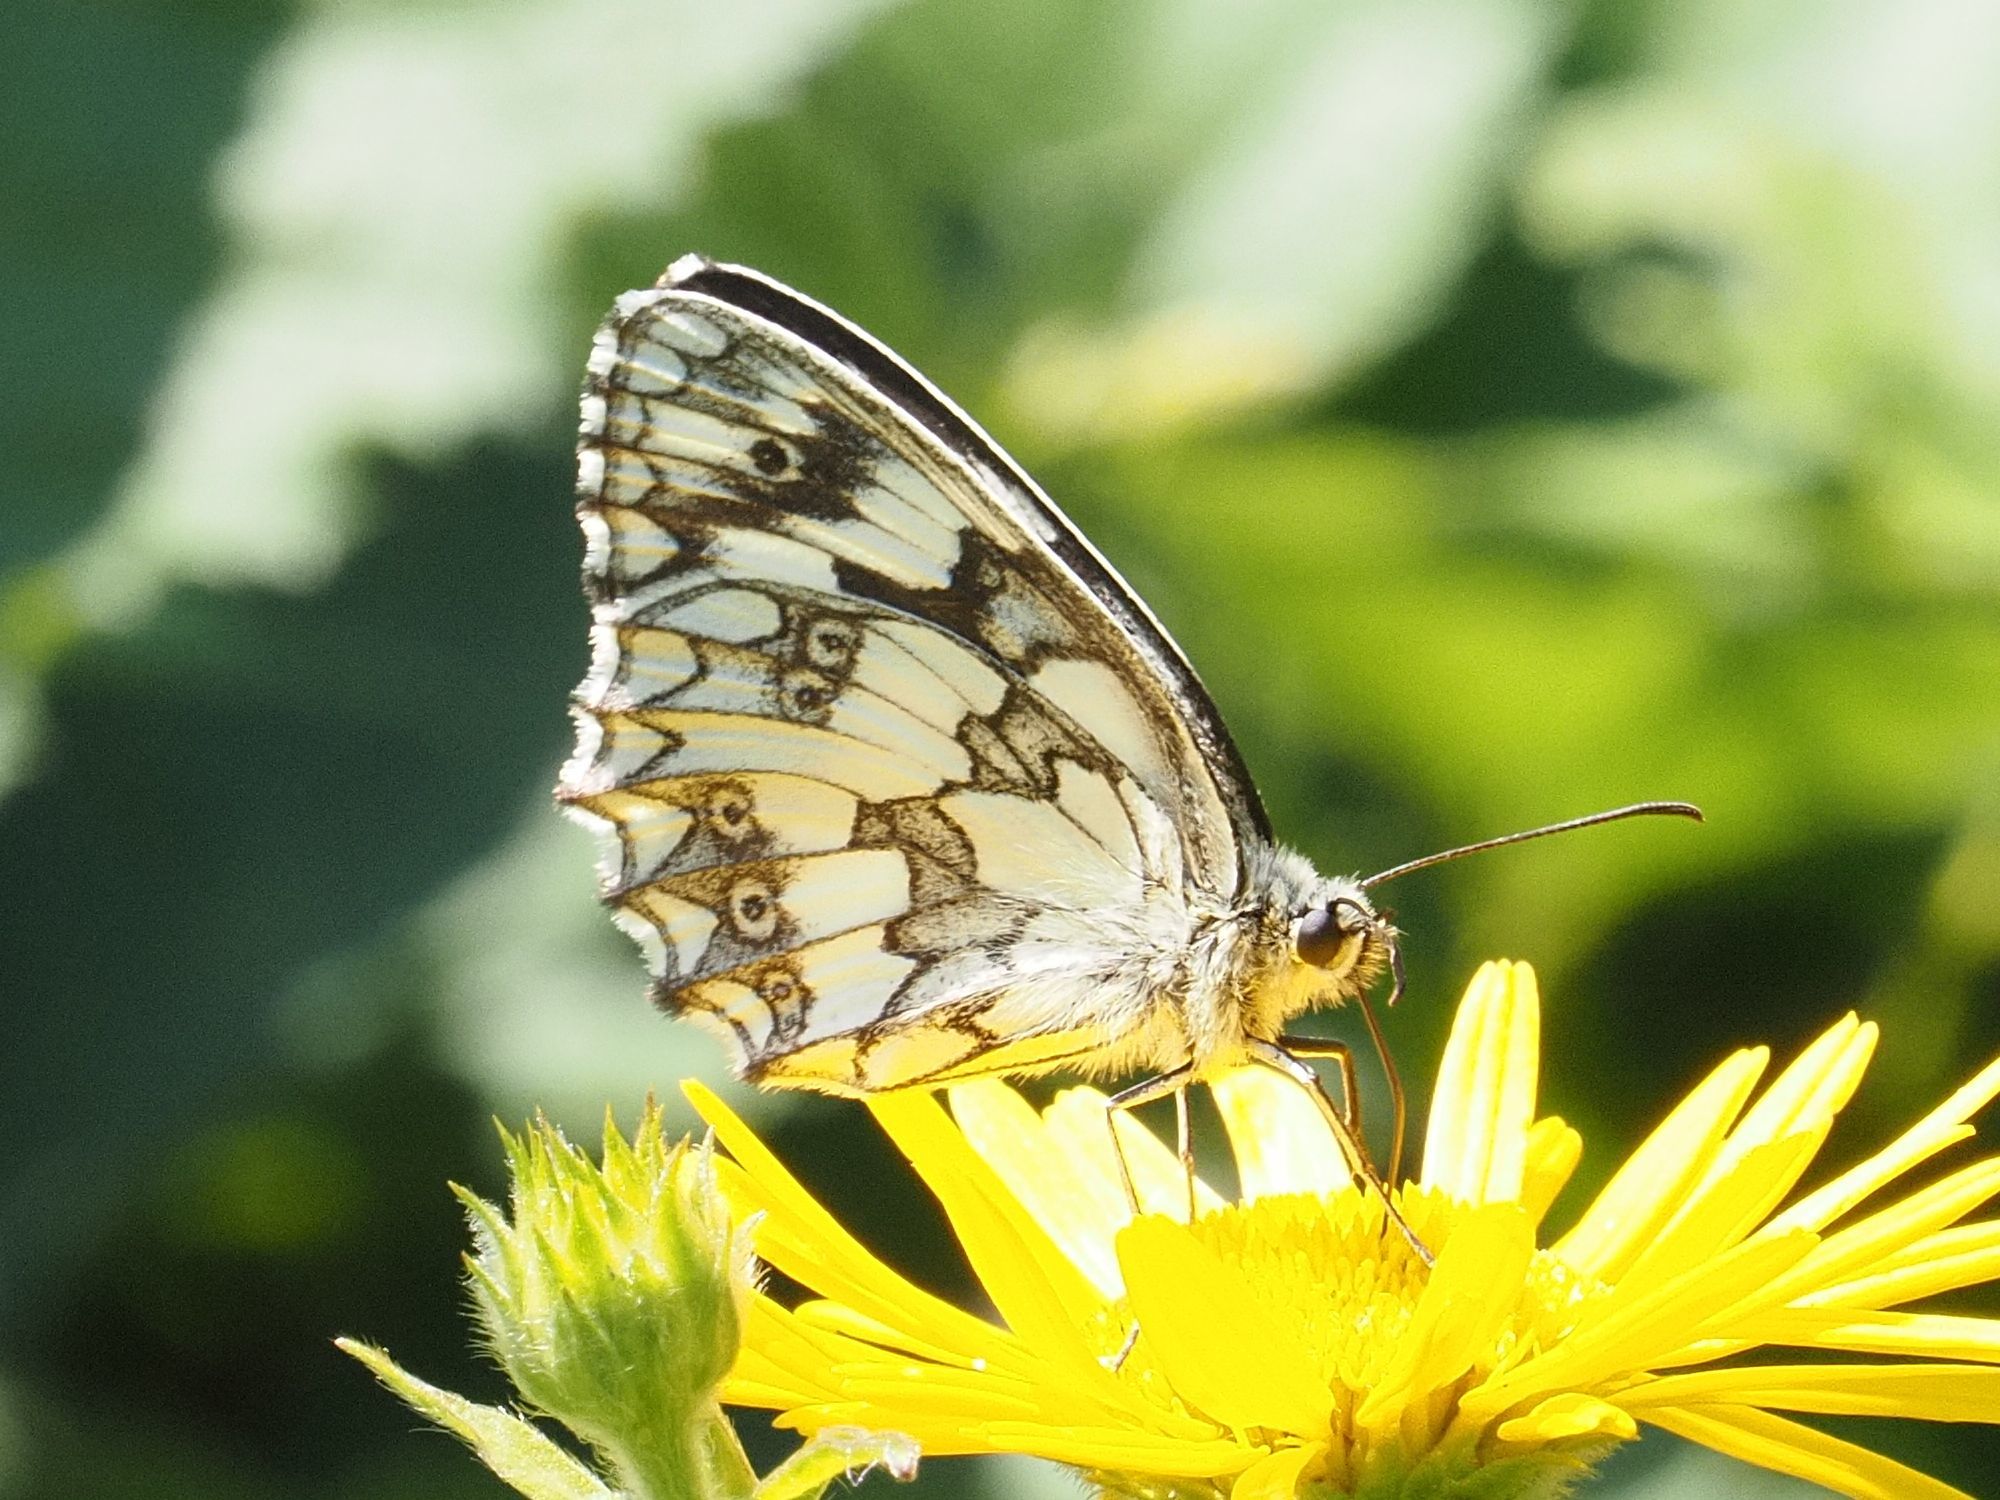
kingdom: Animalia
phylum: Arthropoda
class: Insecta
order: Lepidoptera
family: Nymphalidae
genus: Melanargia
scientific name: Melanargia galathea
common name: Marbled white
